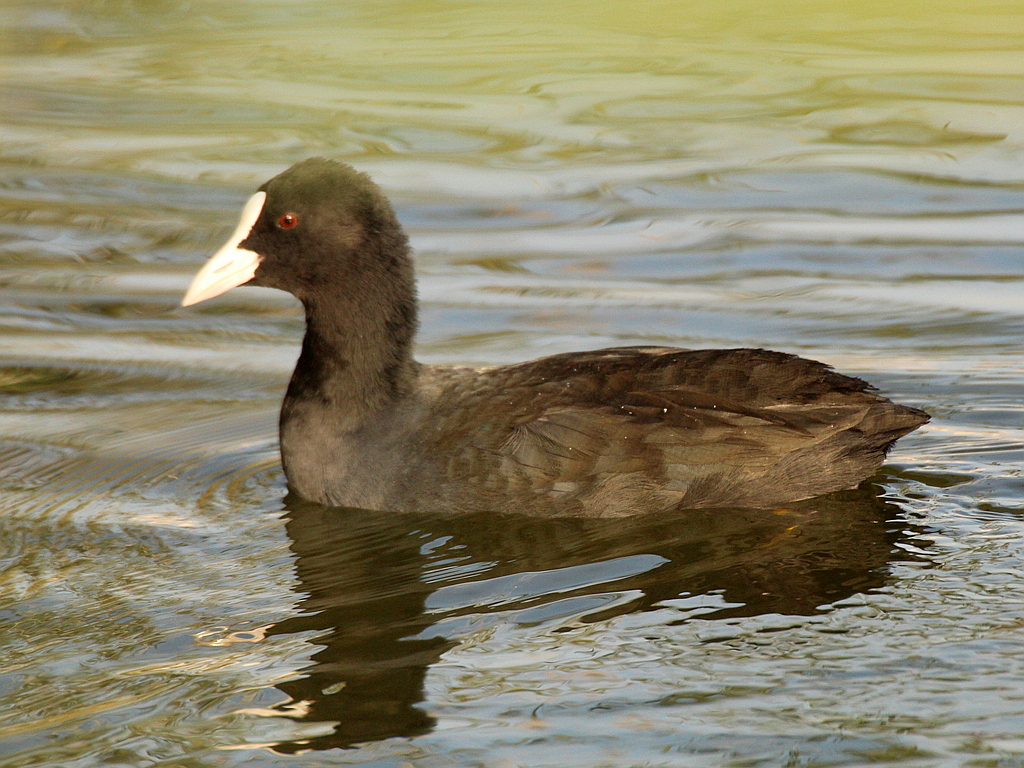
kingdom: Animalia
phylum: Chordata
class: Aves
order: Gruiformes
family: Rallidae
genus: Fulica
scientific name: Fulica atra
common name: Eurasian coot
